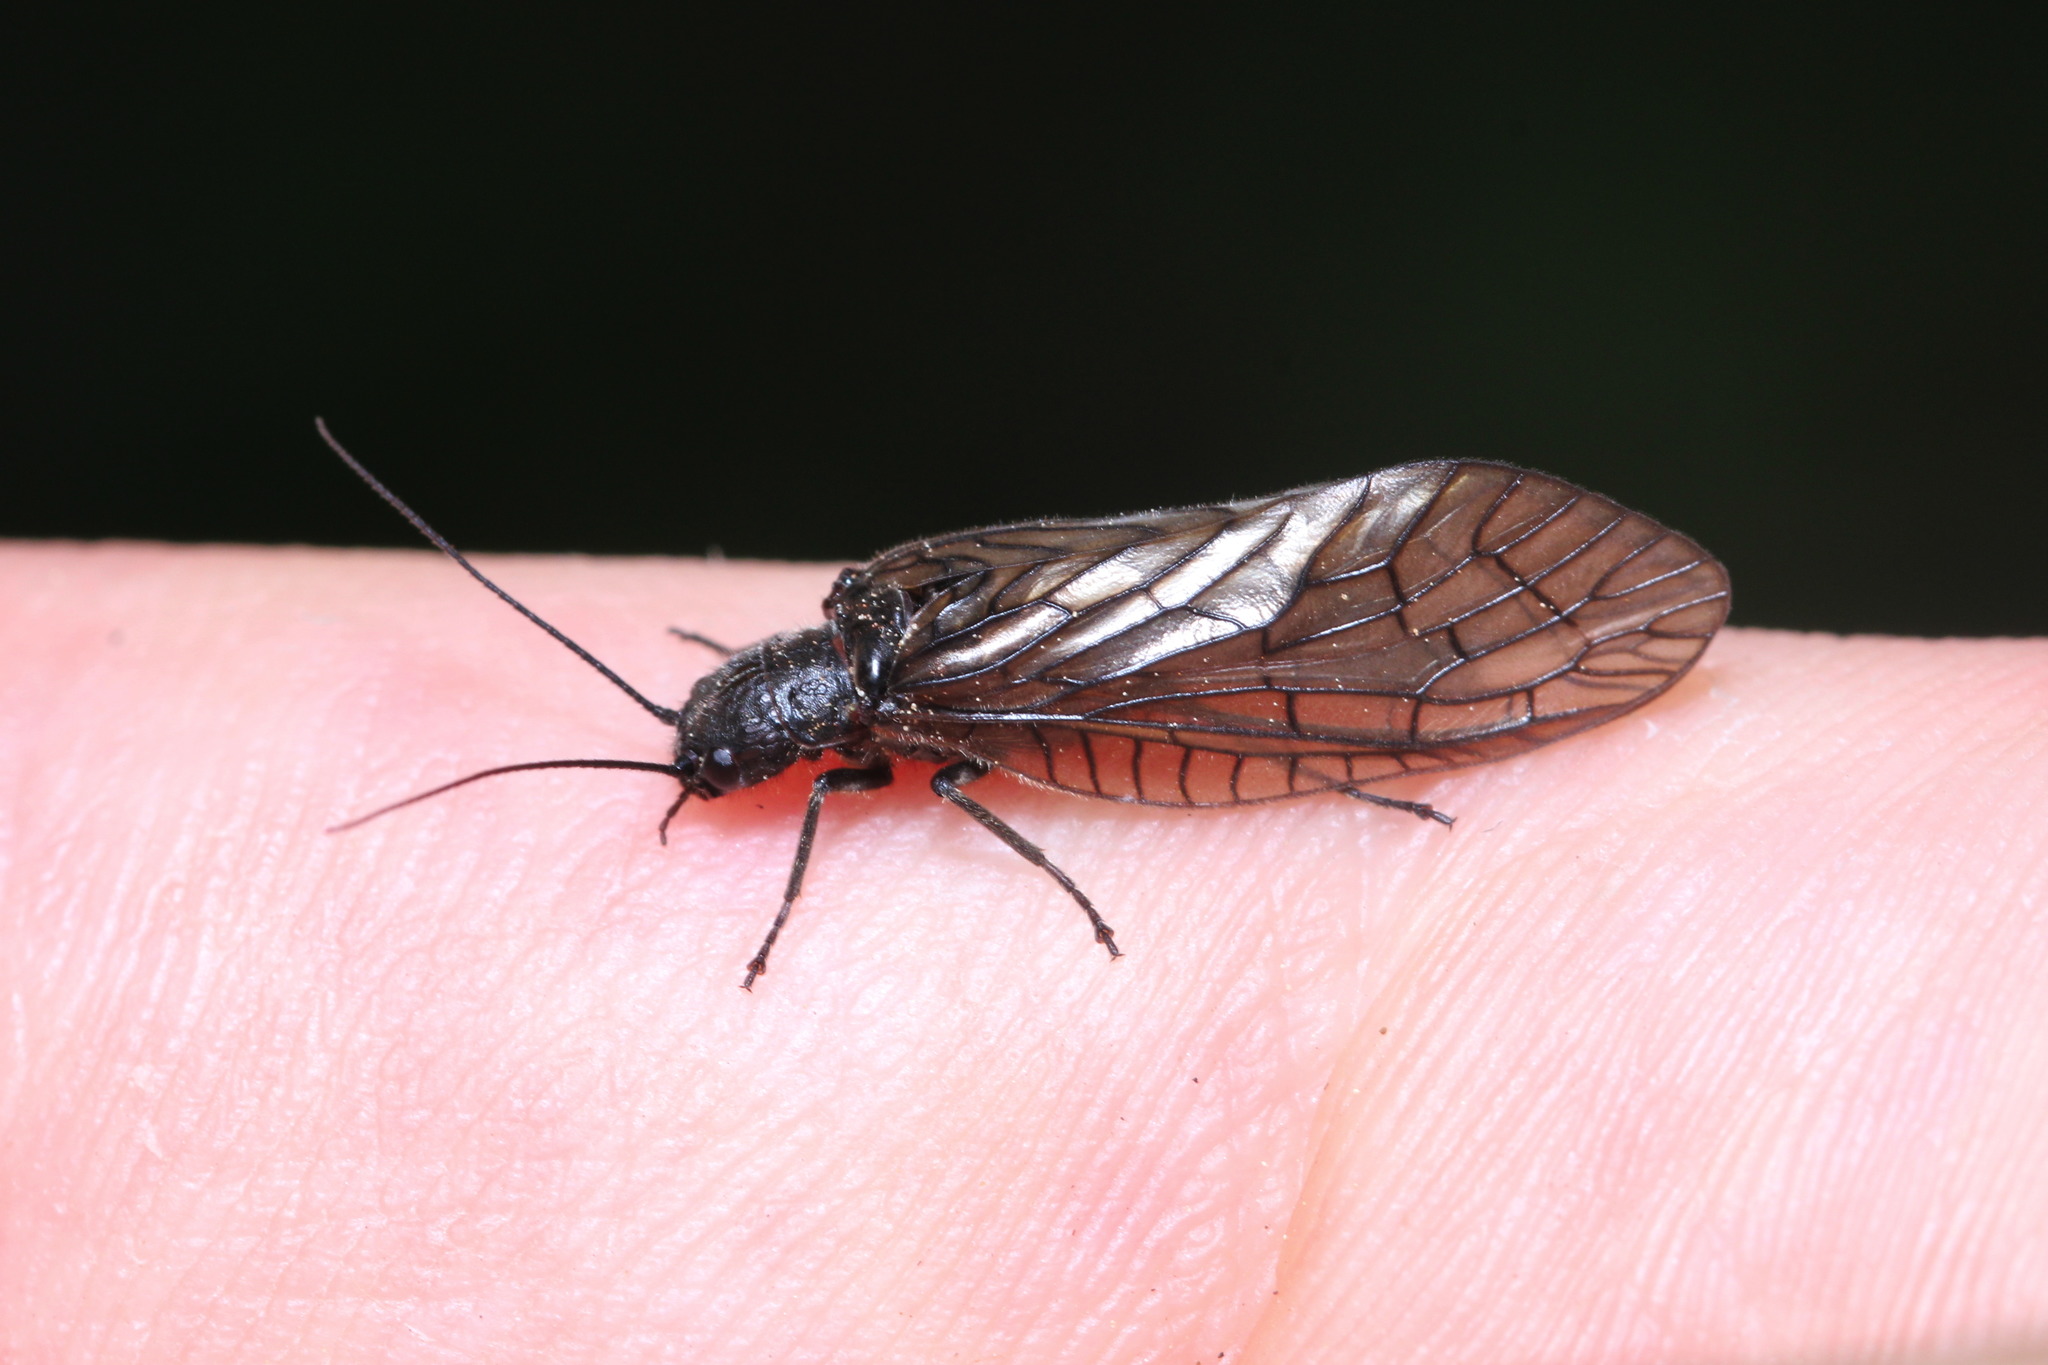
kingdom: Animalia
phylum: Arthropoda
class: Insecta
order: Megaloptera
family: Sialidae
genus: Sialis
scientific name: Sialis lutaria
